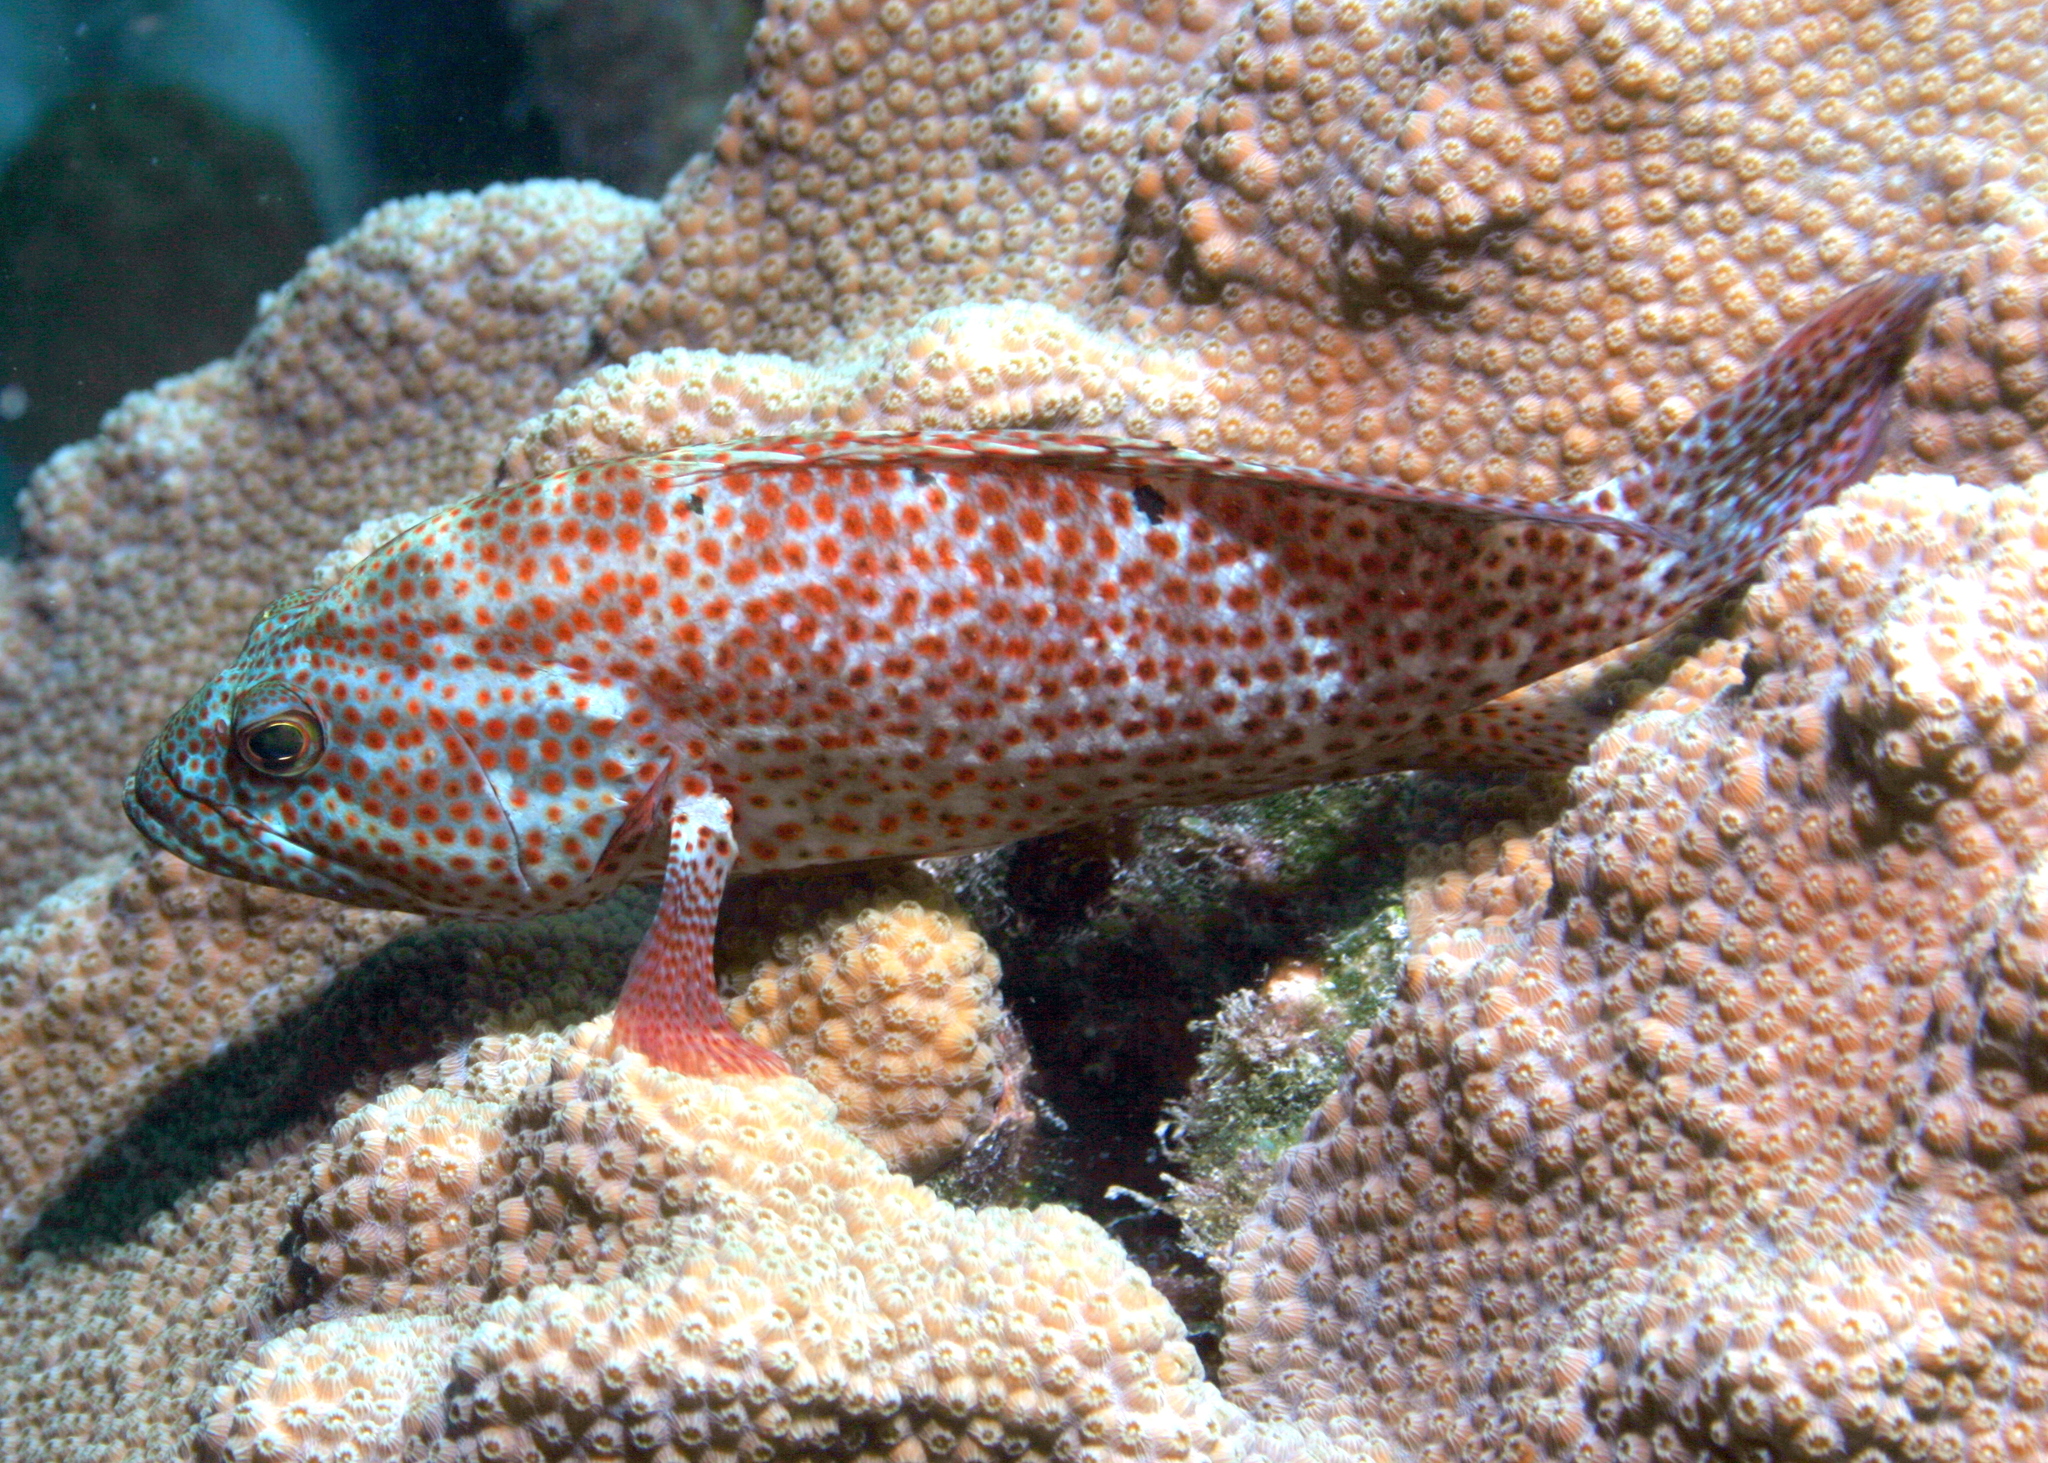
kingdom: Animalia
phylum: Chordata
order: Perciformes
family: Serranidae
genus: Cephalopholis
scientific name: Cephalopholis cruentata
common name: Graysby
